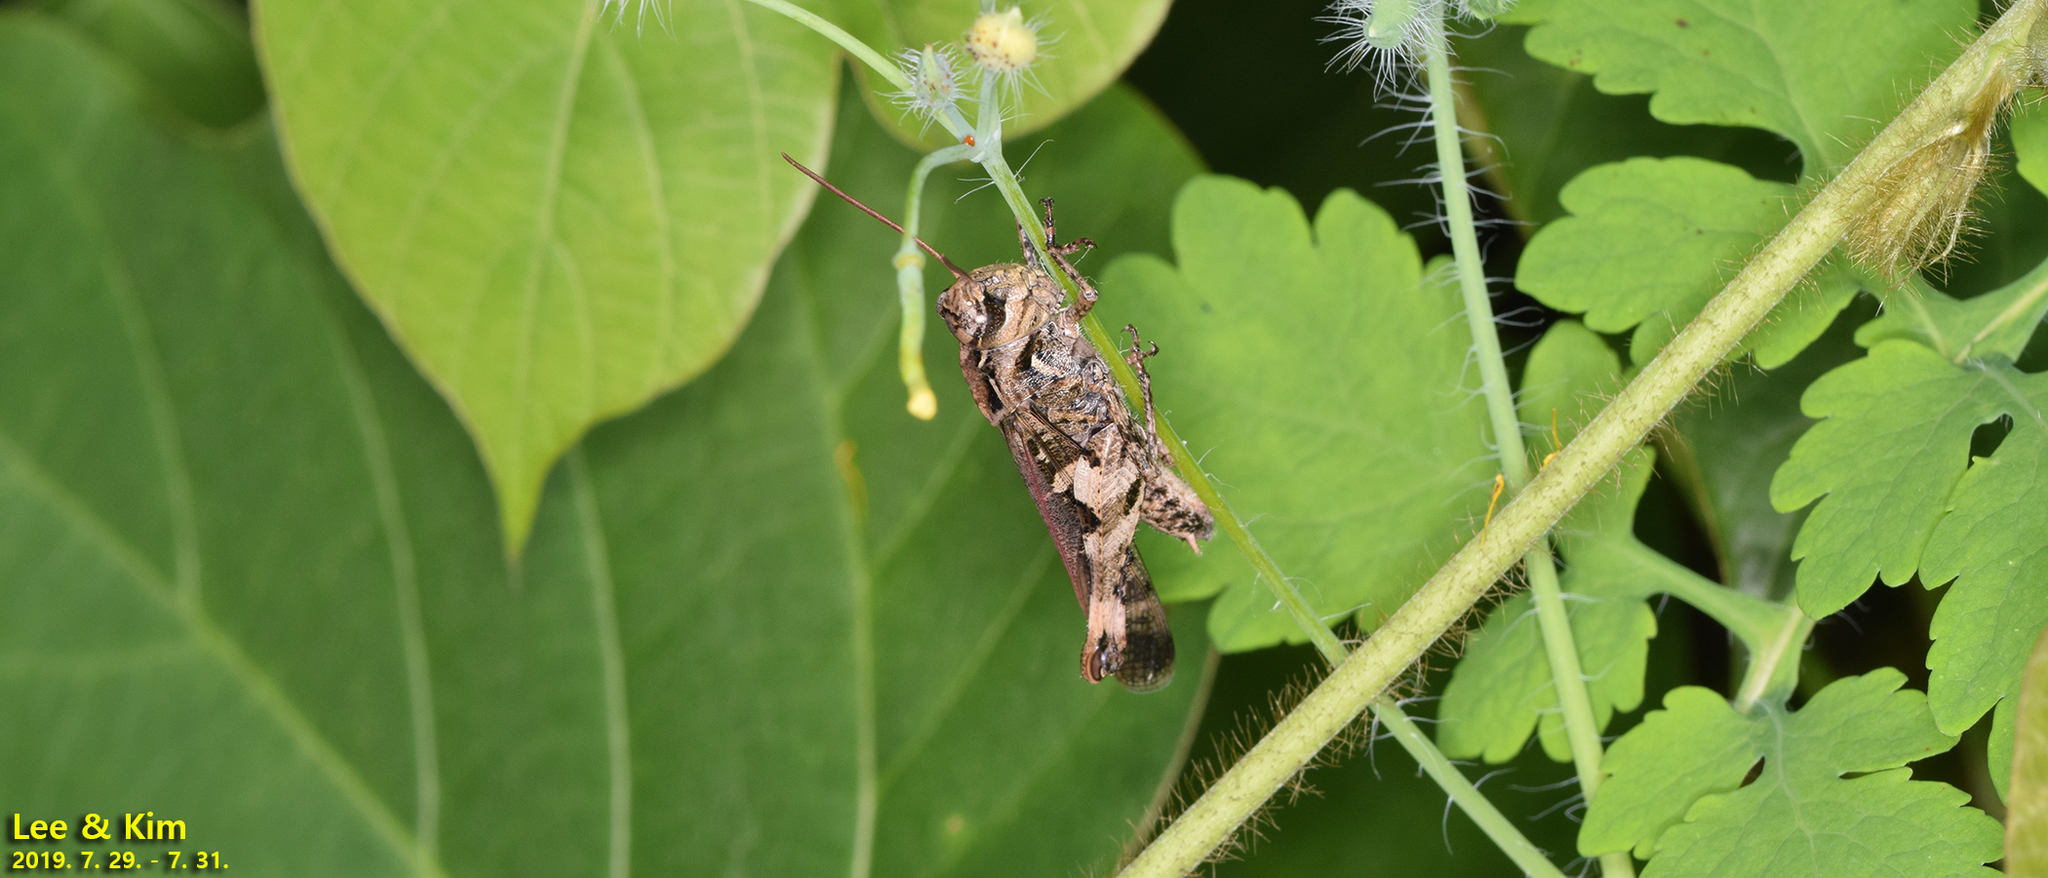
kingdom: Animalia
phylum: Arthropoda
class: Insecta
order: Orthoptera
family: Acrididae
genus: Oedaleus
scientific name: Oedaleus infernalis
